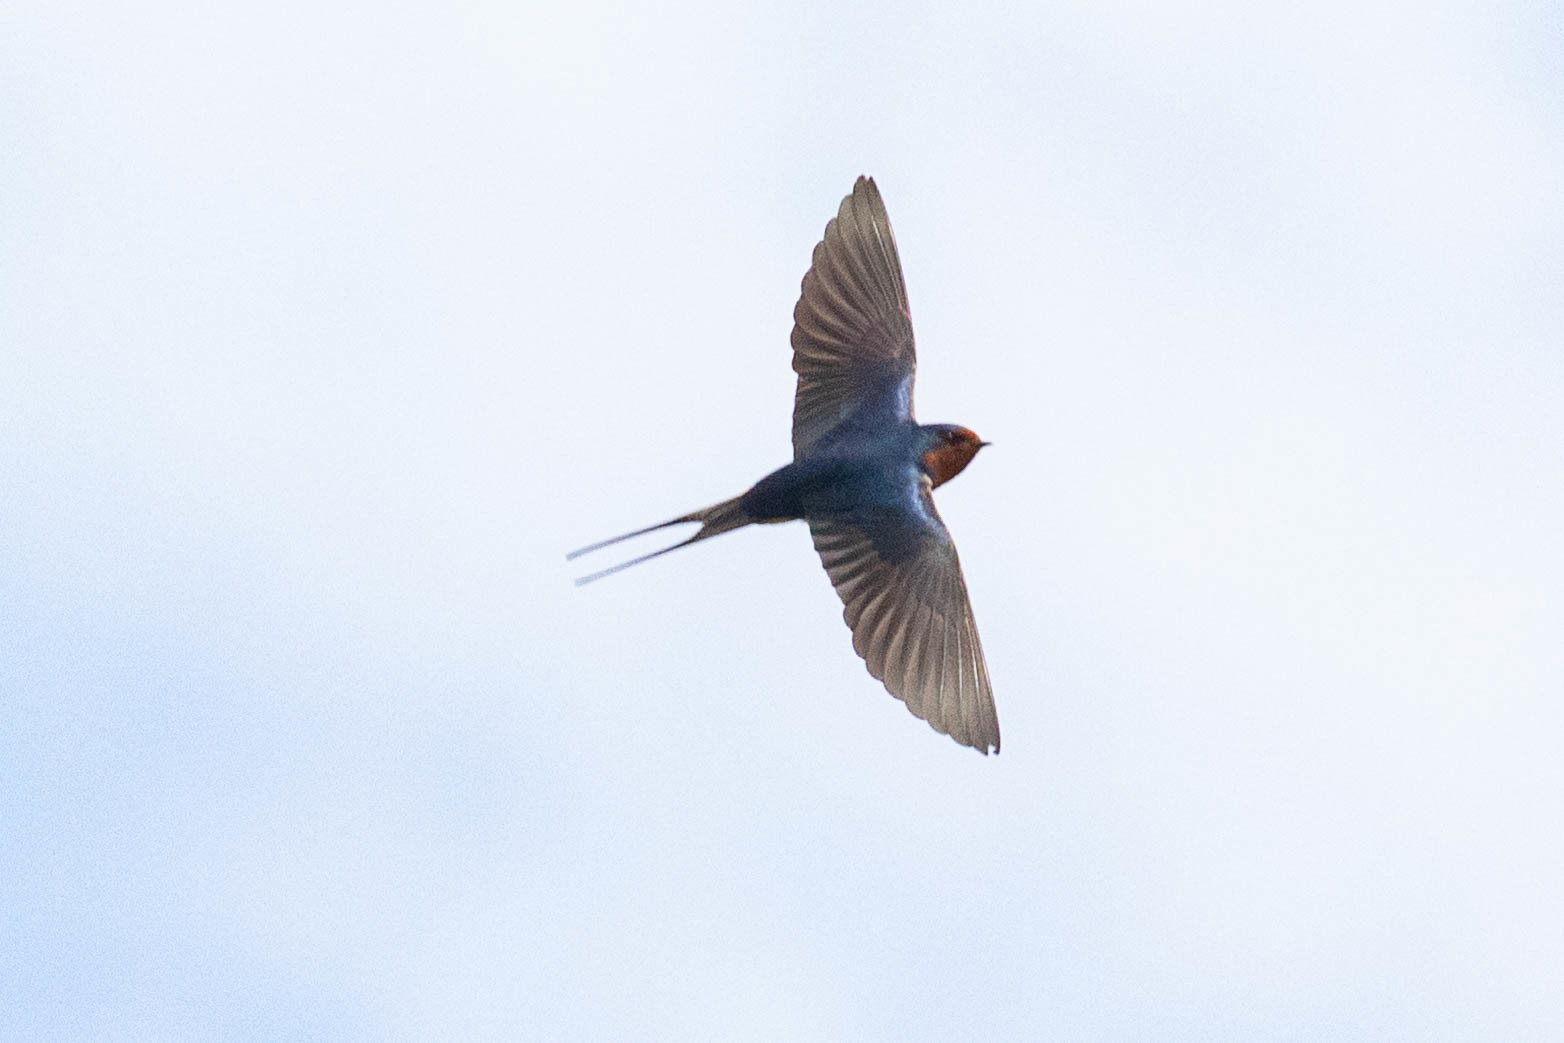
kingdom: Animalia
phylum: Chordata
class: Aves
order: Passeriformes
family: Hirundinidae
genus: Hirundo
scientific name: Hirundo rustica
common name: Barn swallow
